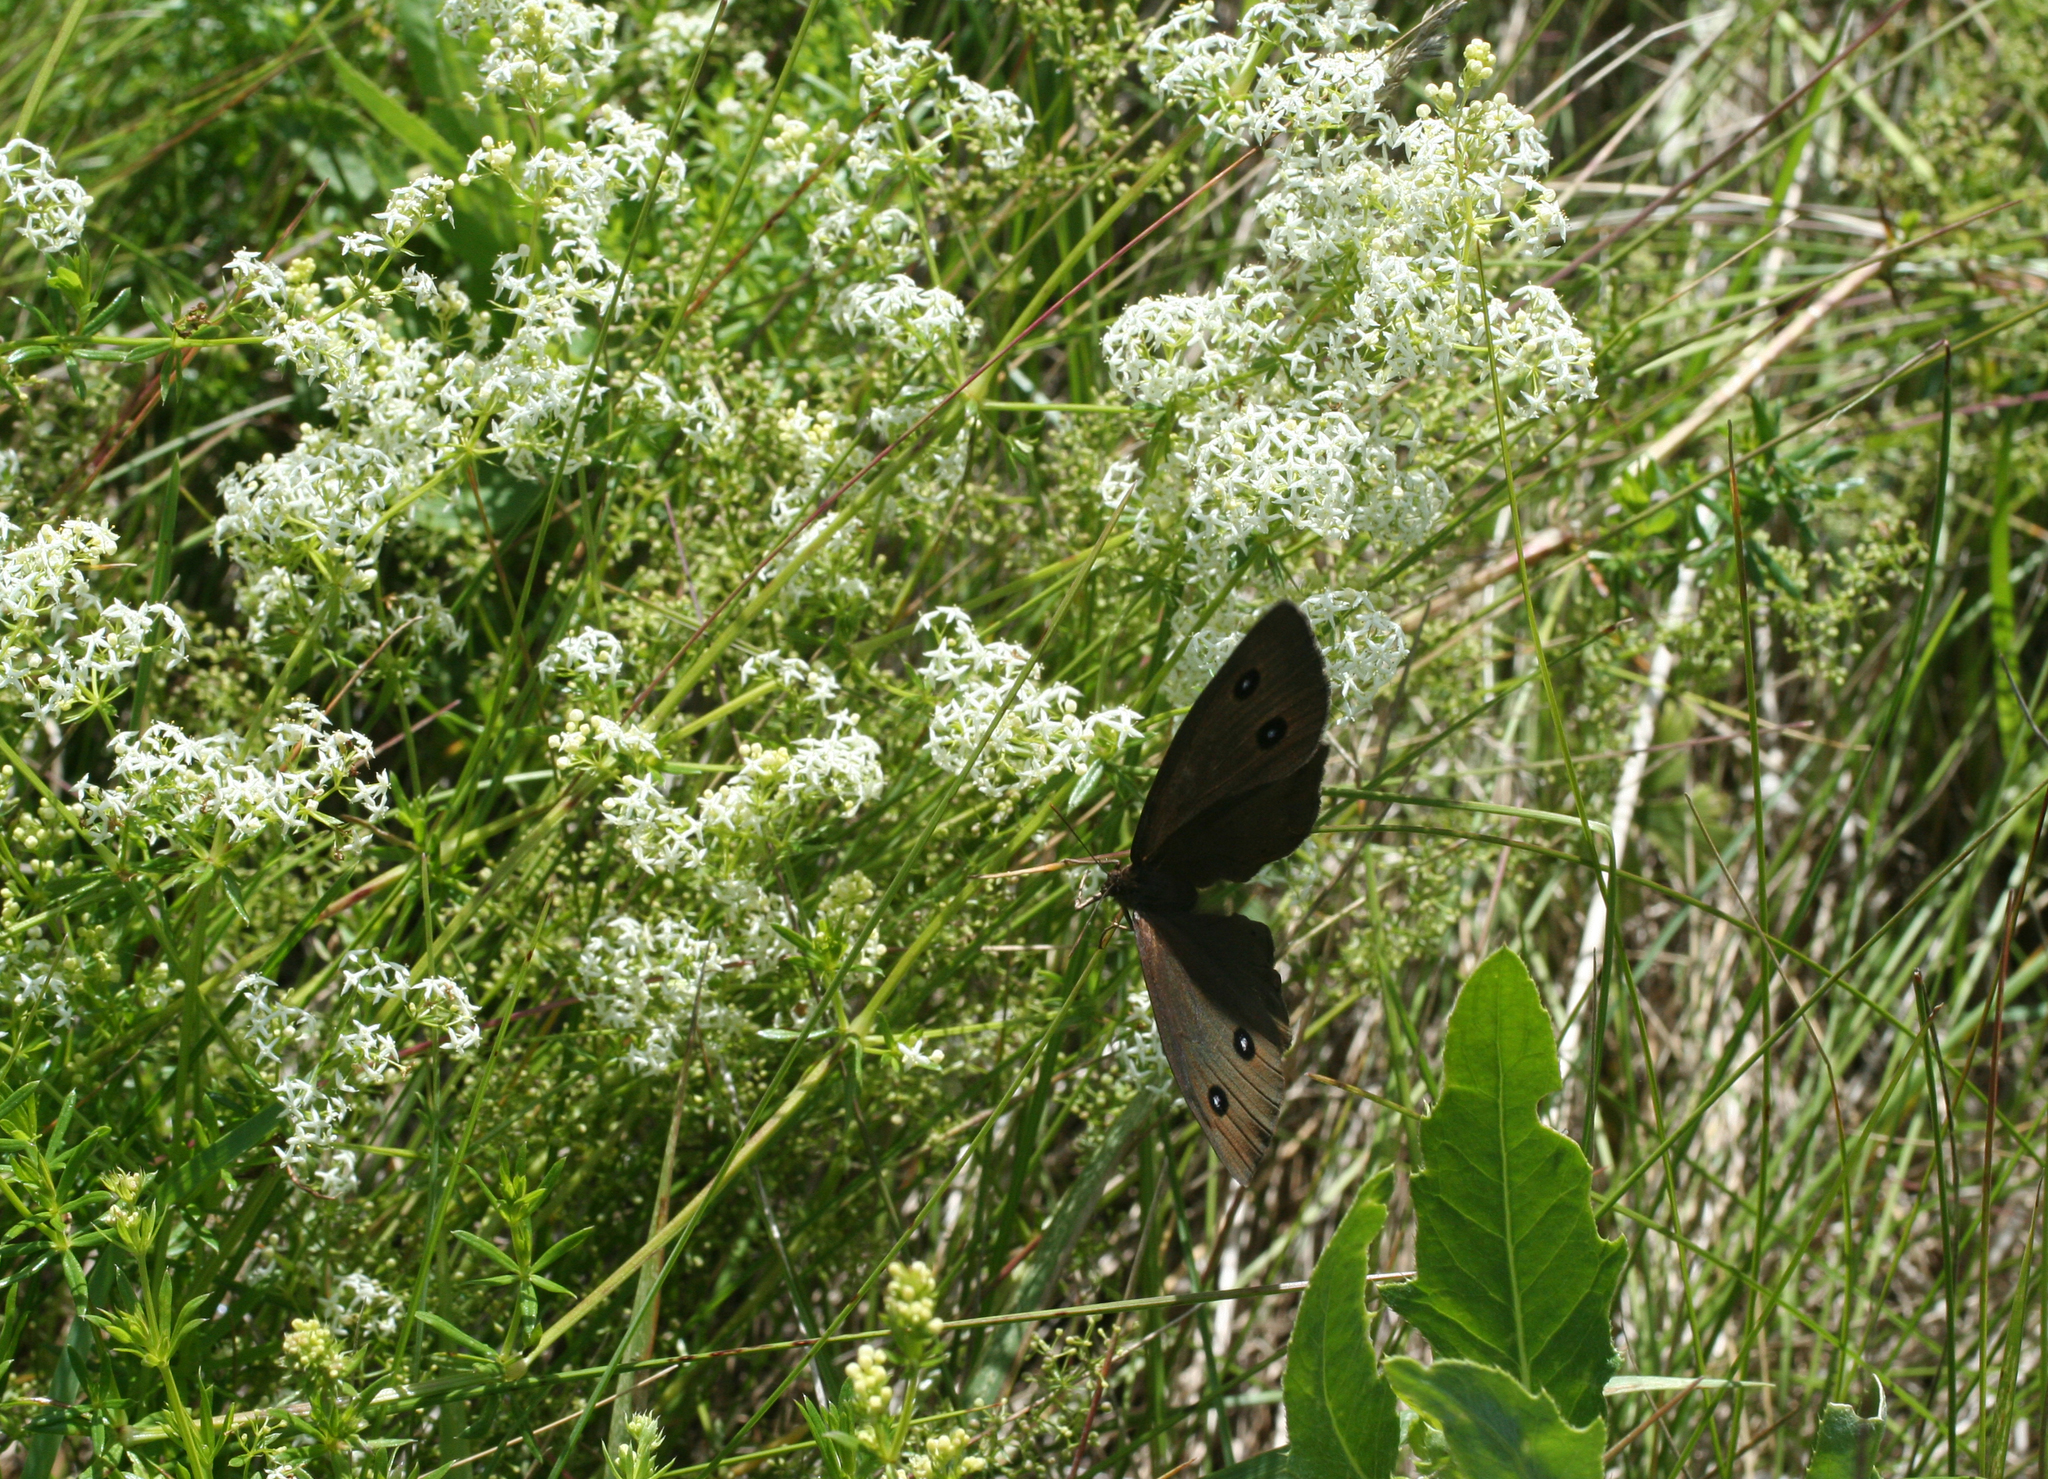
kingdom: Plantae
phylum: Tracheophyta
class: Magnoliopsida
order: Gentianales
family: Rubiaceae
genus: Galium
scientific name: Galium mollugo
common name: Hedge bedstraw
